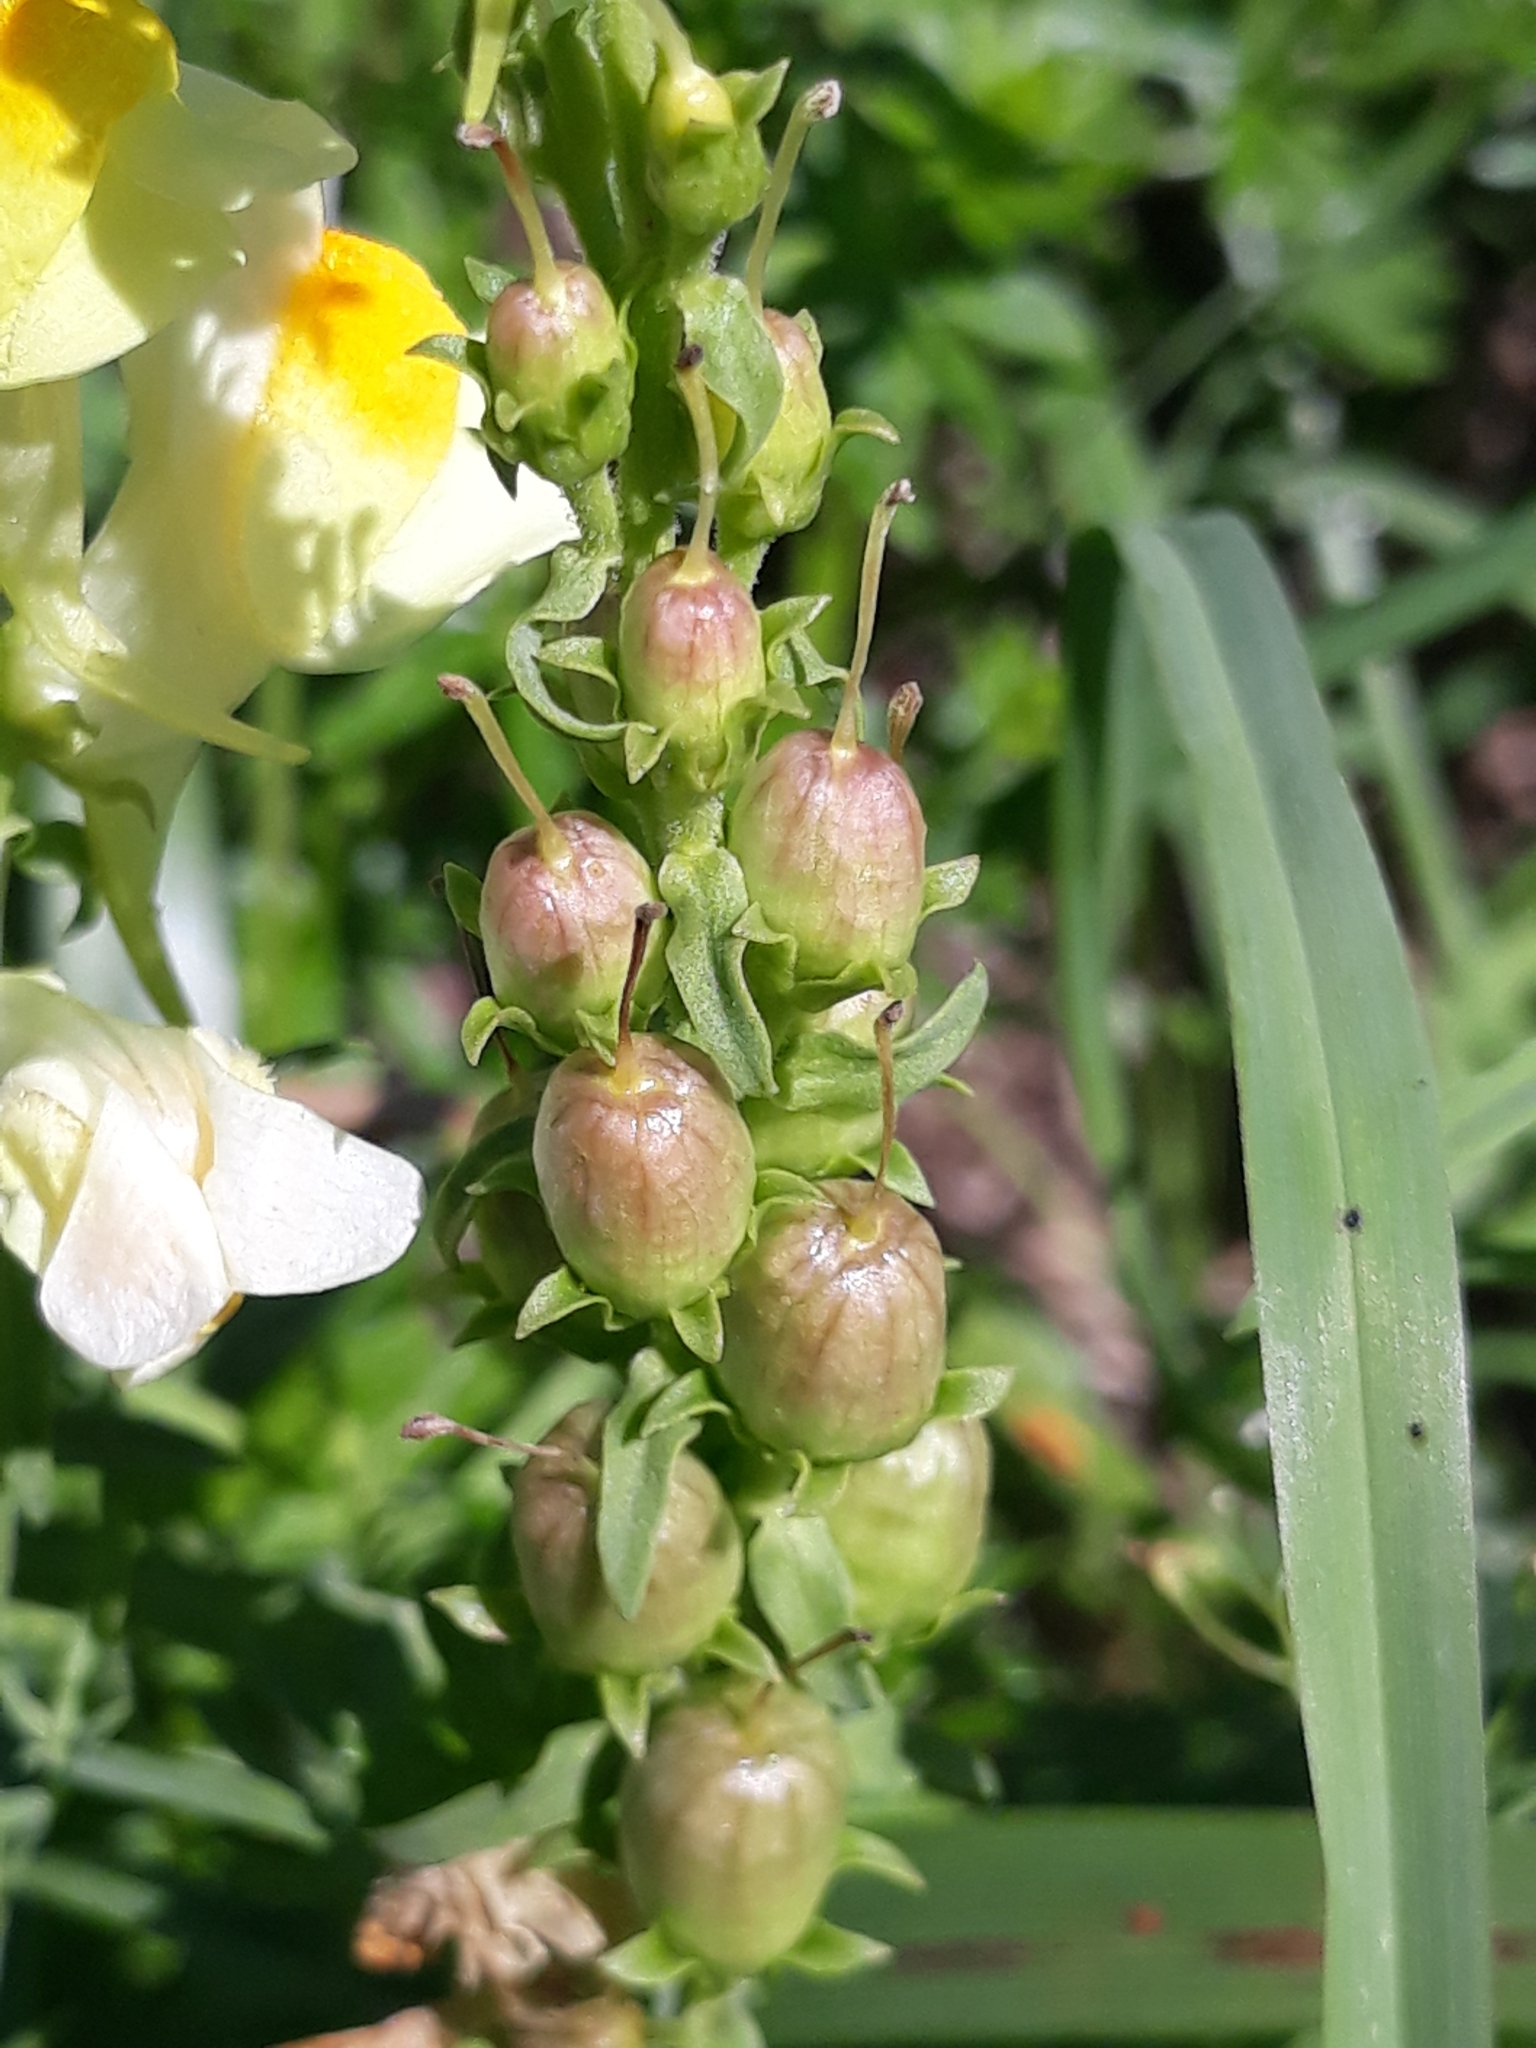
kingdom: Plantae
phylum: Tracheophyta
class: Magnoliopsida
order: Lamiales
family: Plantaginaceae
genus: Linaria
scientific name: Linaria vulgaris
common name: Butter and eggs
